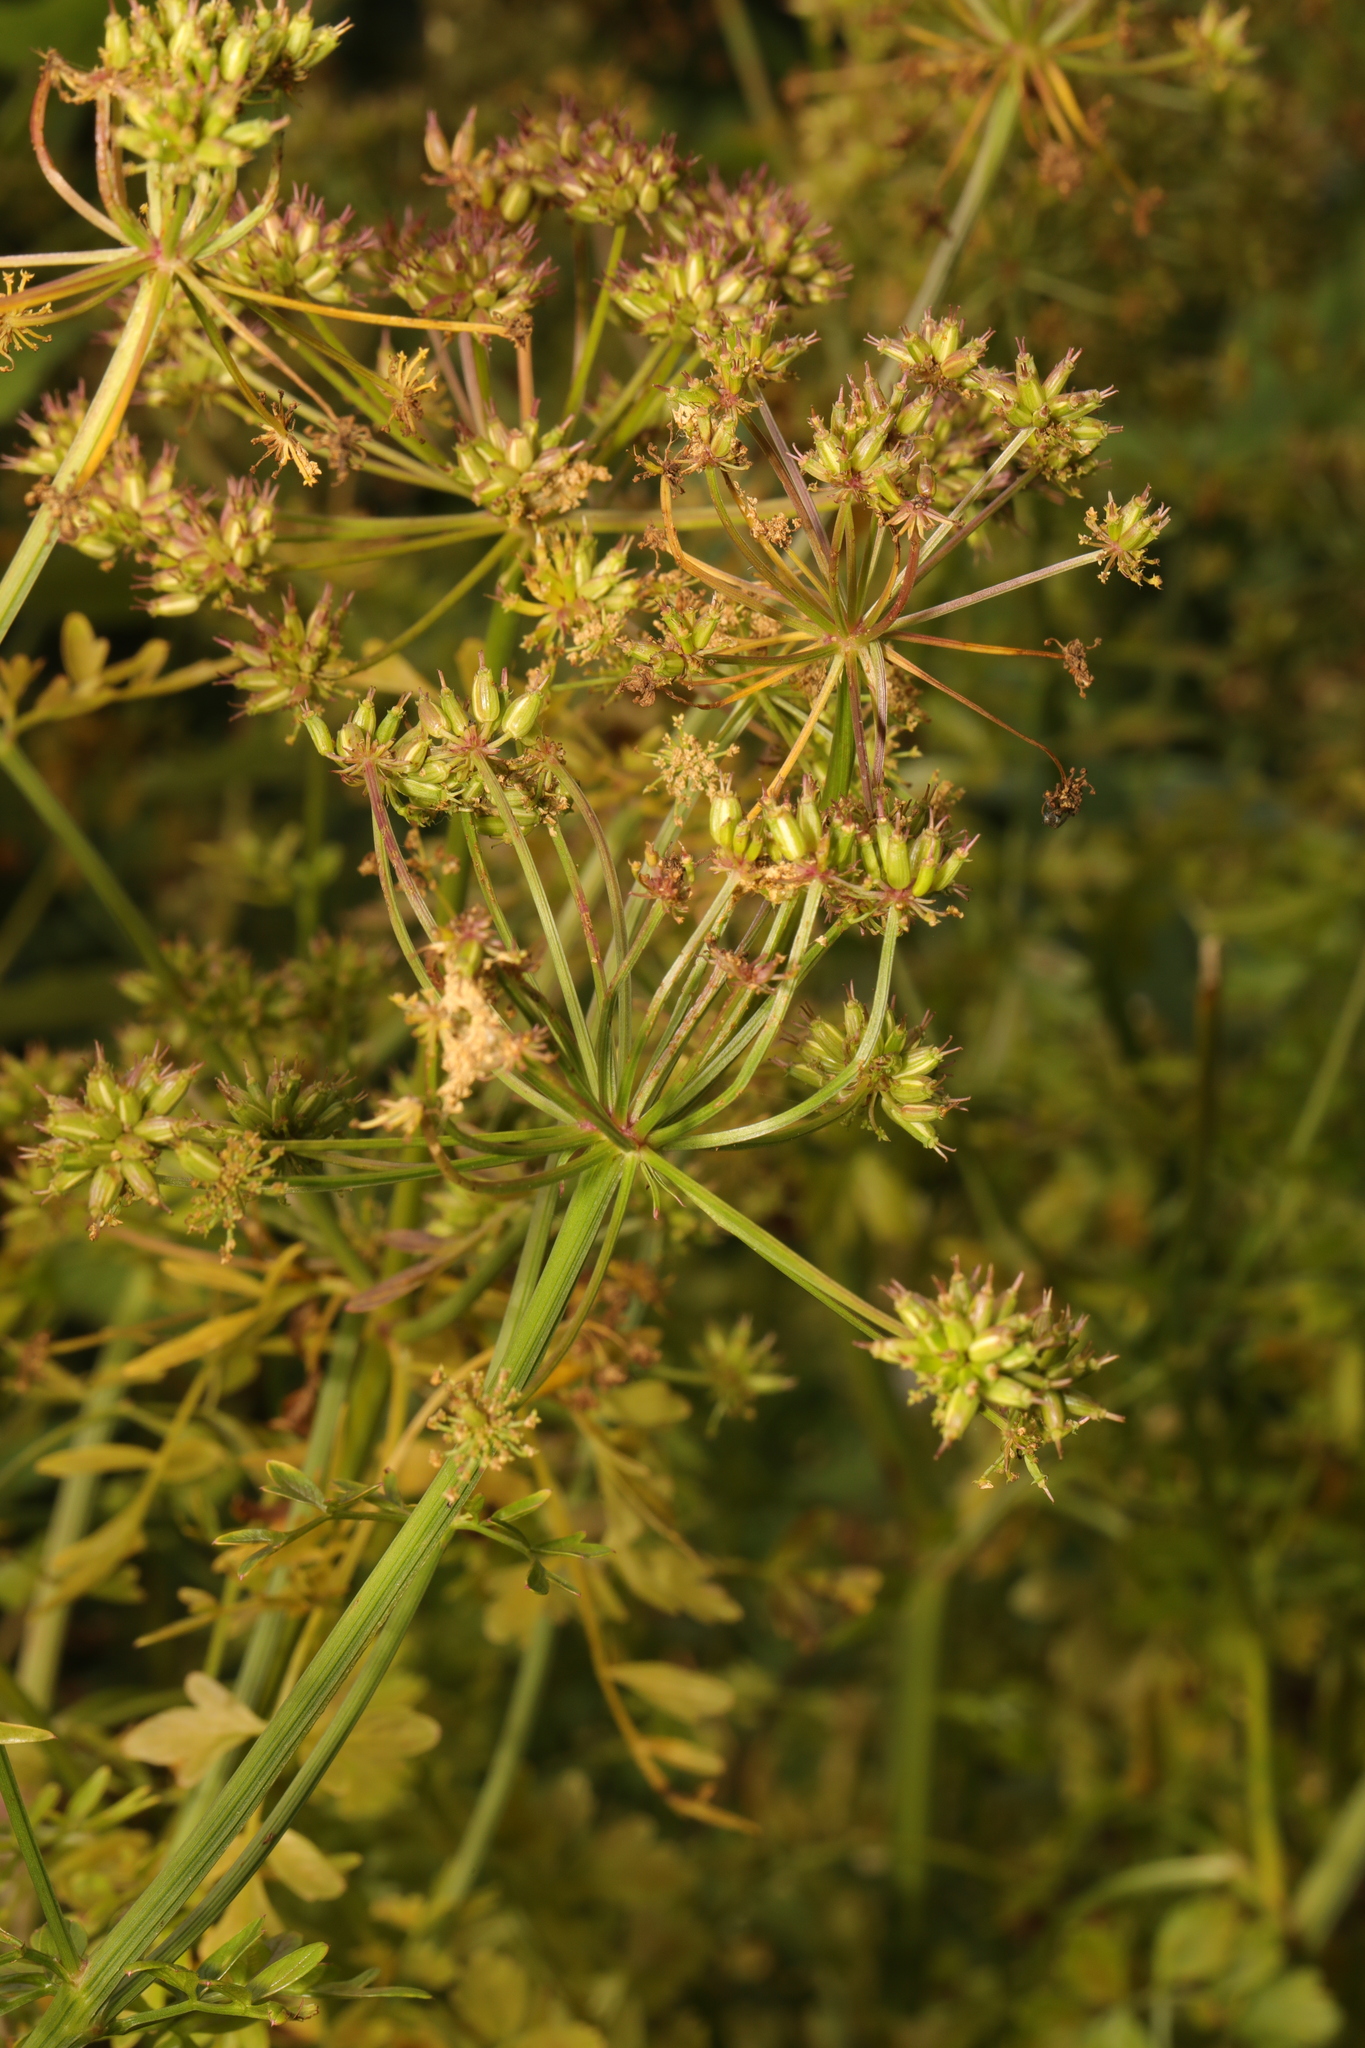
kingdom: Plantae
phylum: Tracheophyta
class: Magnoliopsida
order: Apiales
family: Apiaceae
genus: Oenanthe
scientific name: Oenanthe crocata
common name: Hemlock water-dropwort
